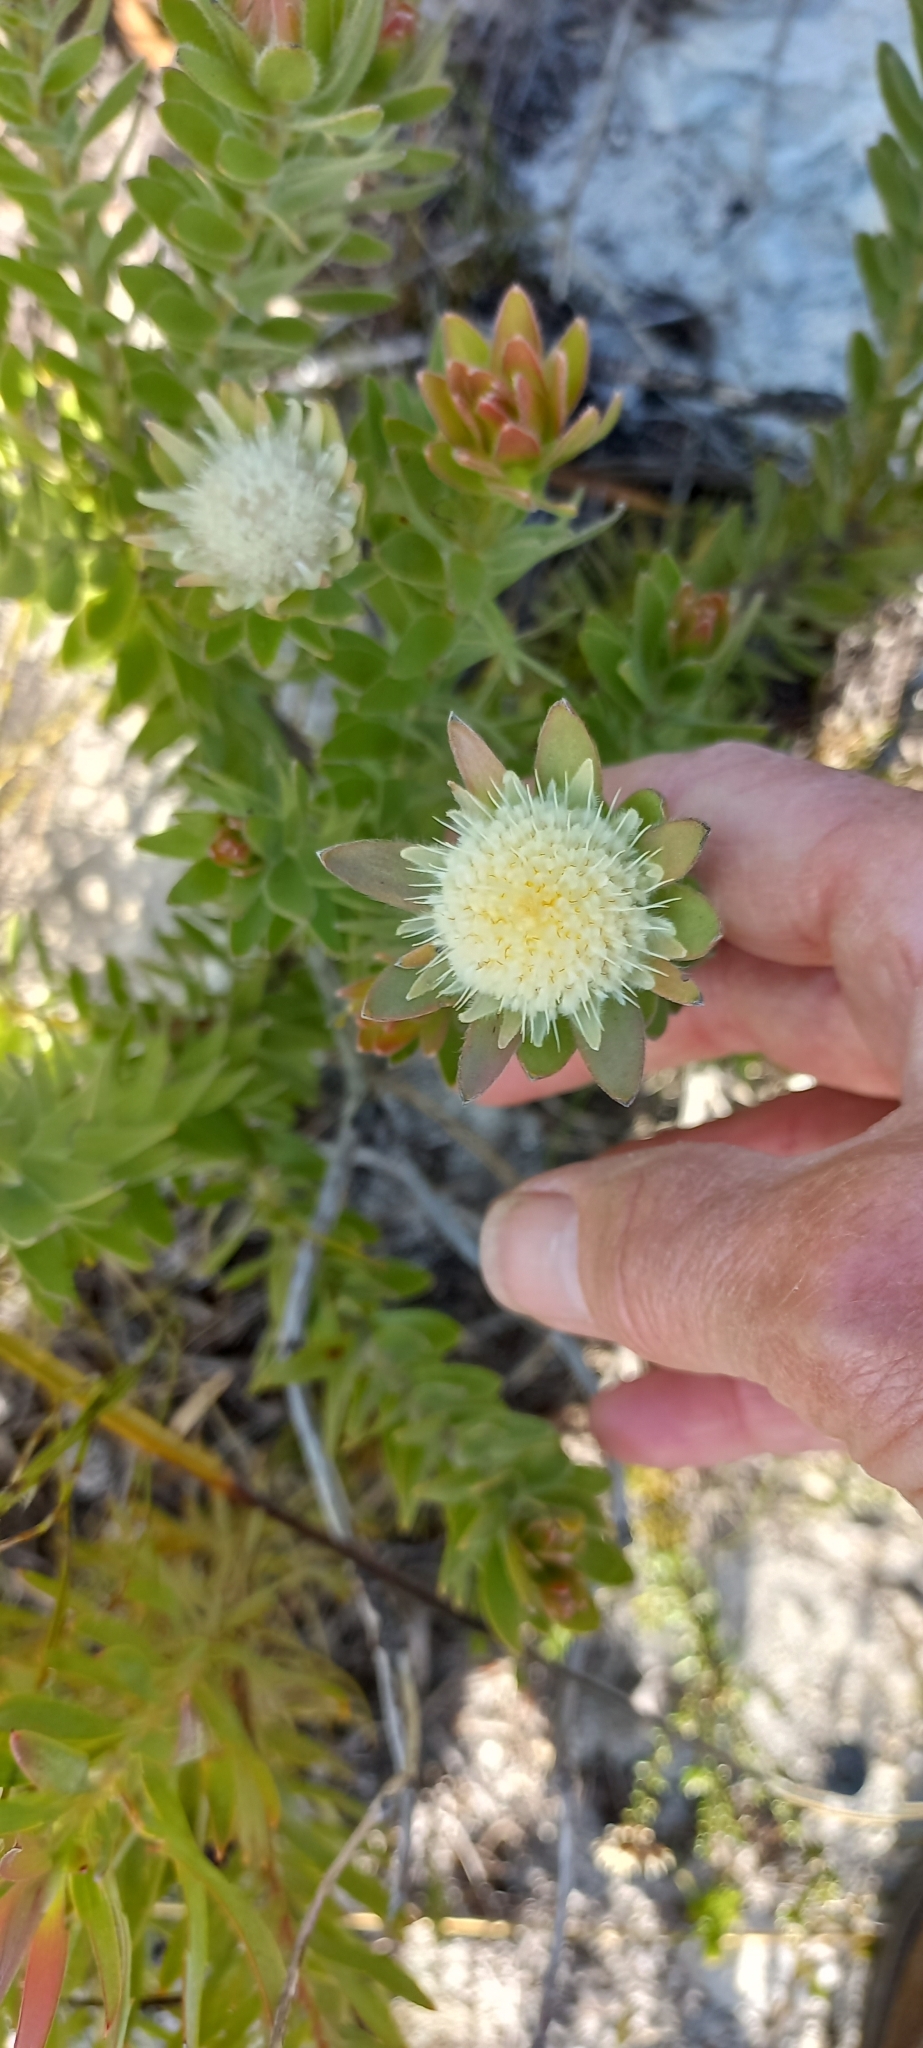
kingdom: Plantae
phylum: Tracheophyta
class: Magnoliopsida
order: Proteales
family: Proteaceae
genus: Diastella
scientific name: Diastella thymelaeoides
